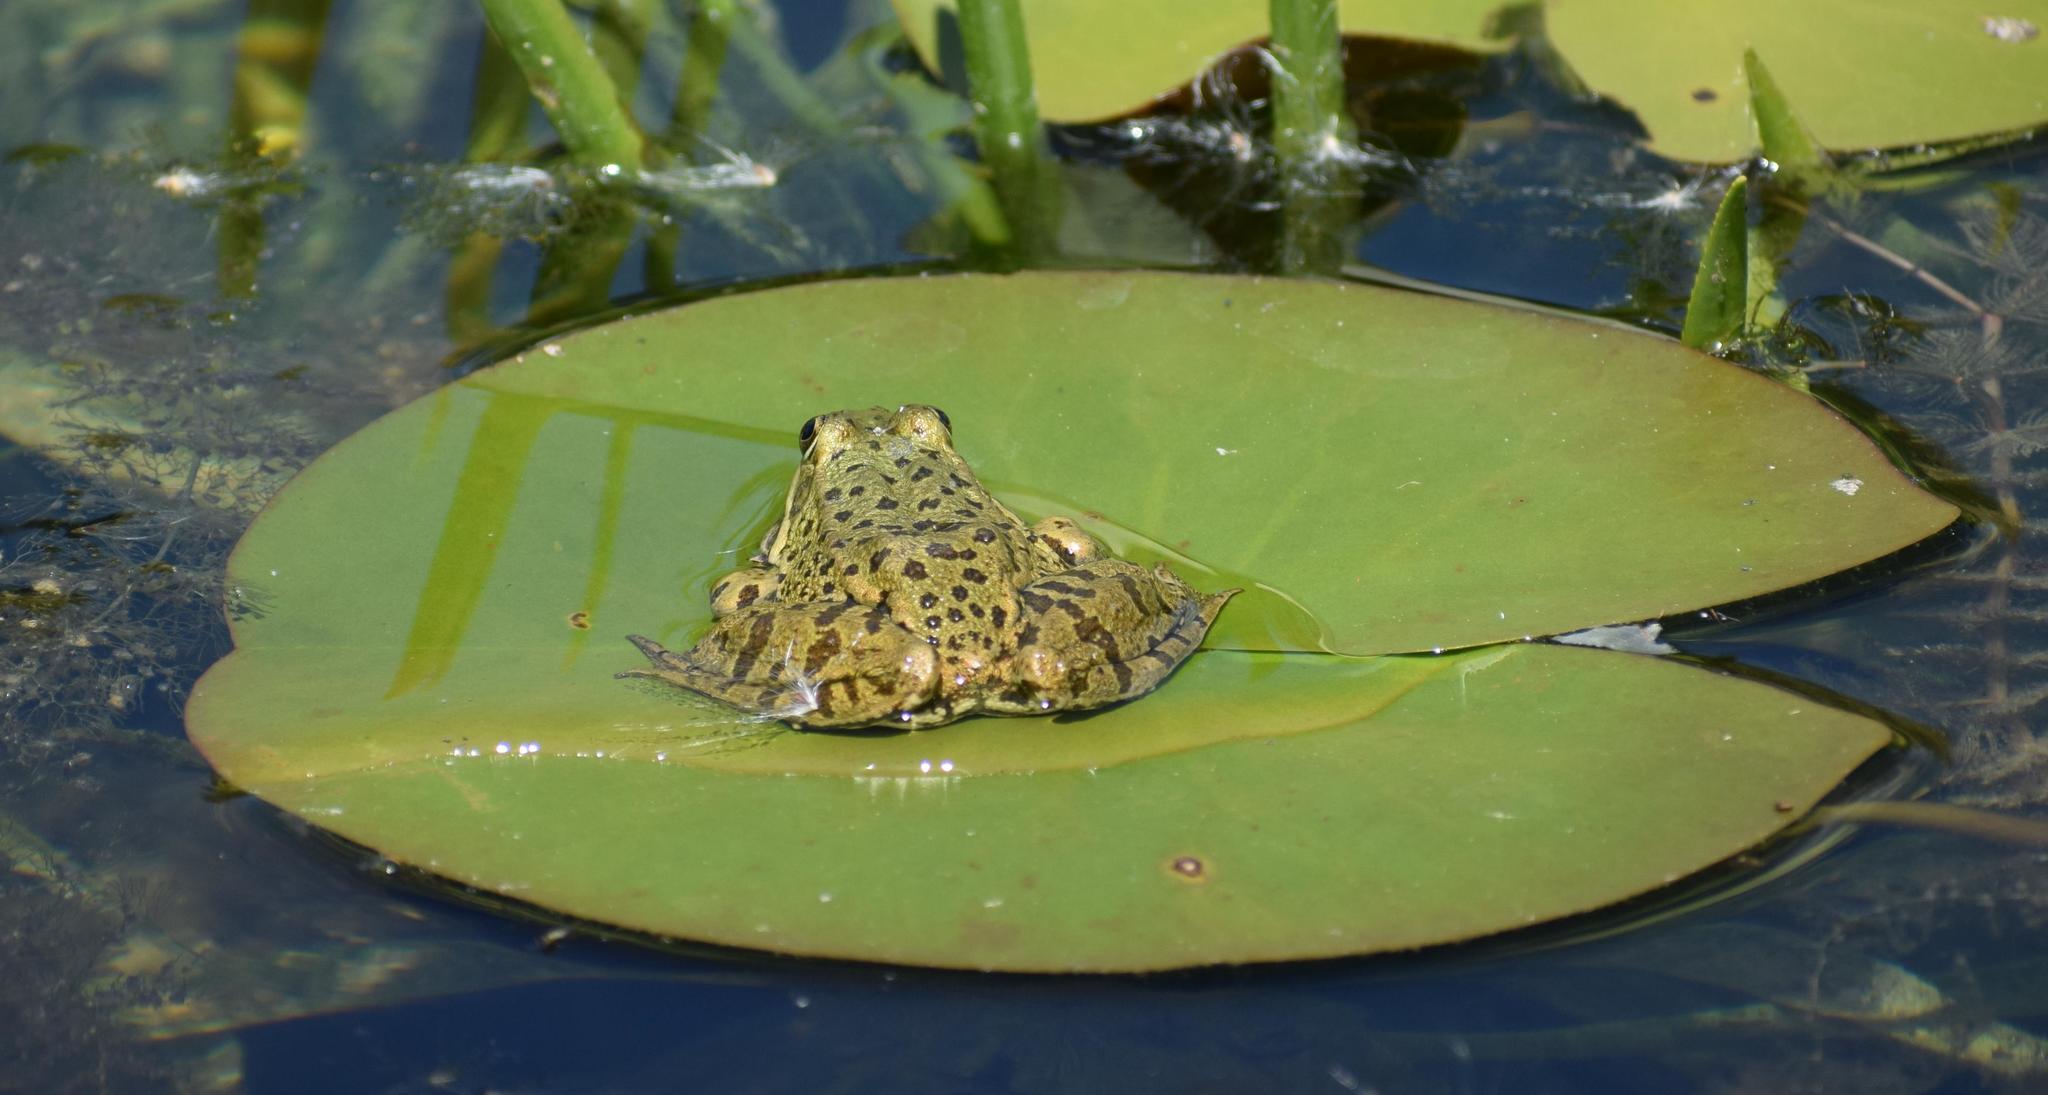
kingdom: Animalia
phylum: Chordata
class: Amphibia
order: Anura
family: Ranidae
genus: Pelophylax
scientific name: Pelophylax
